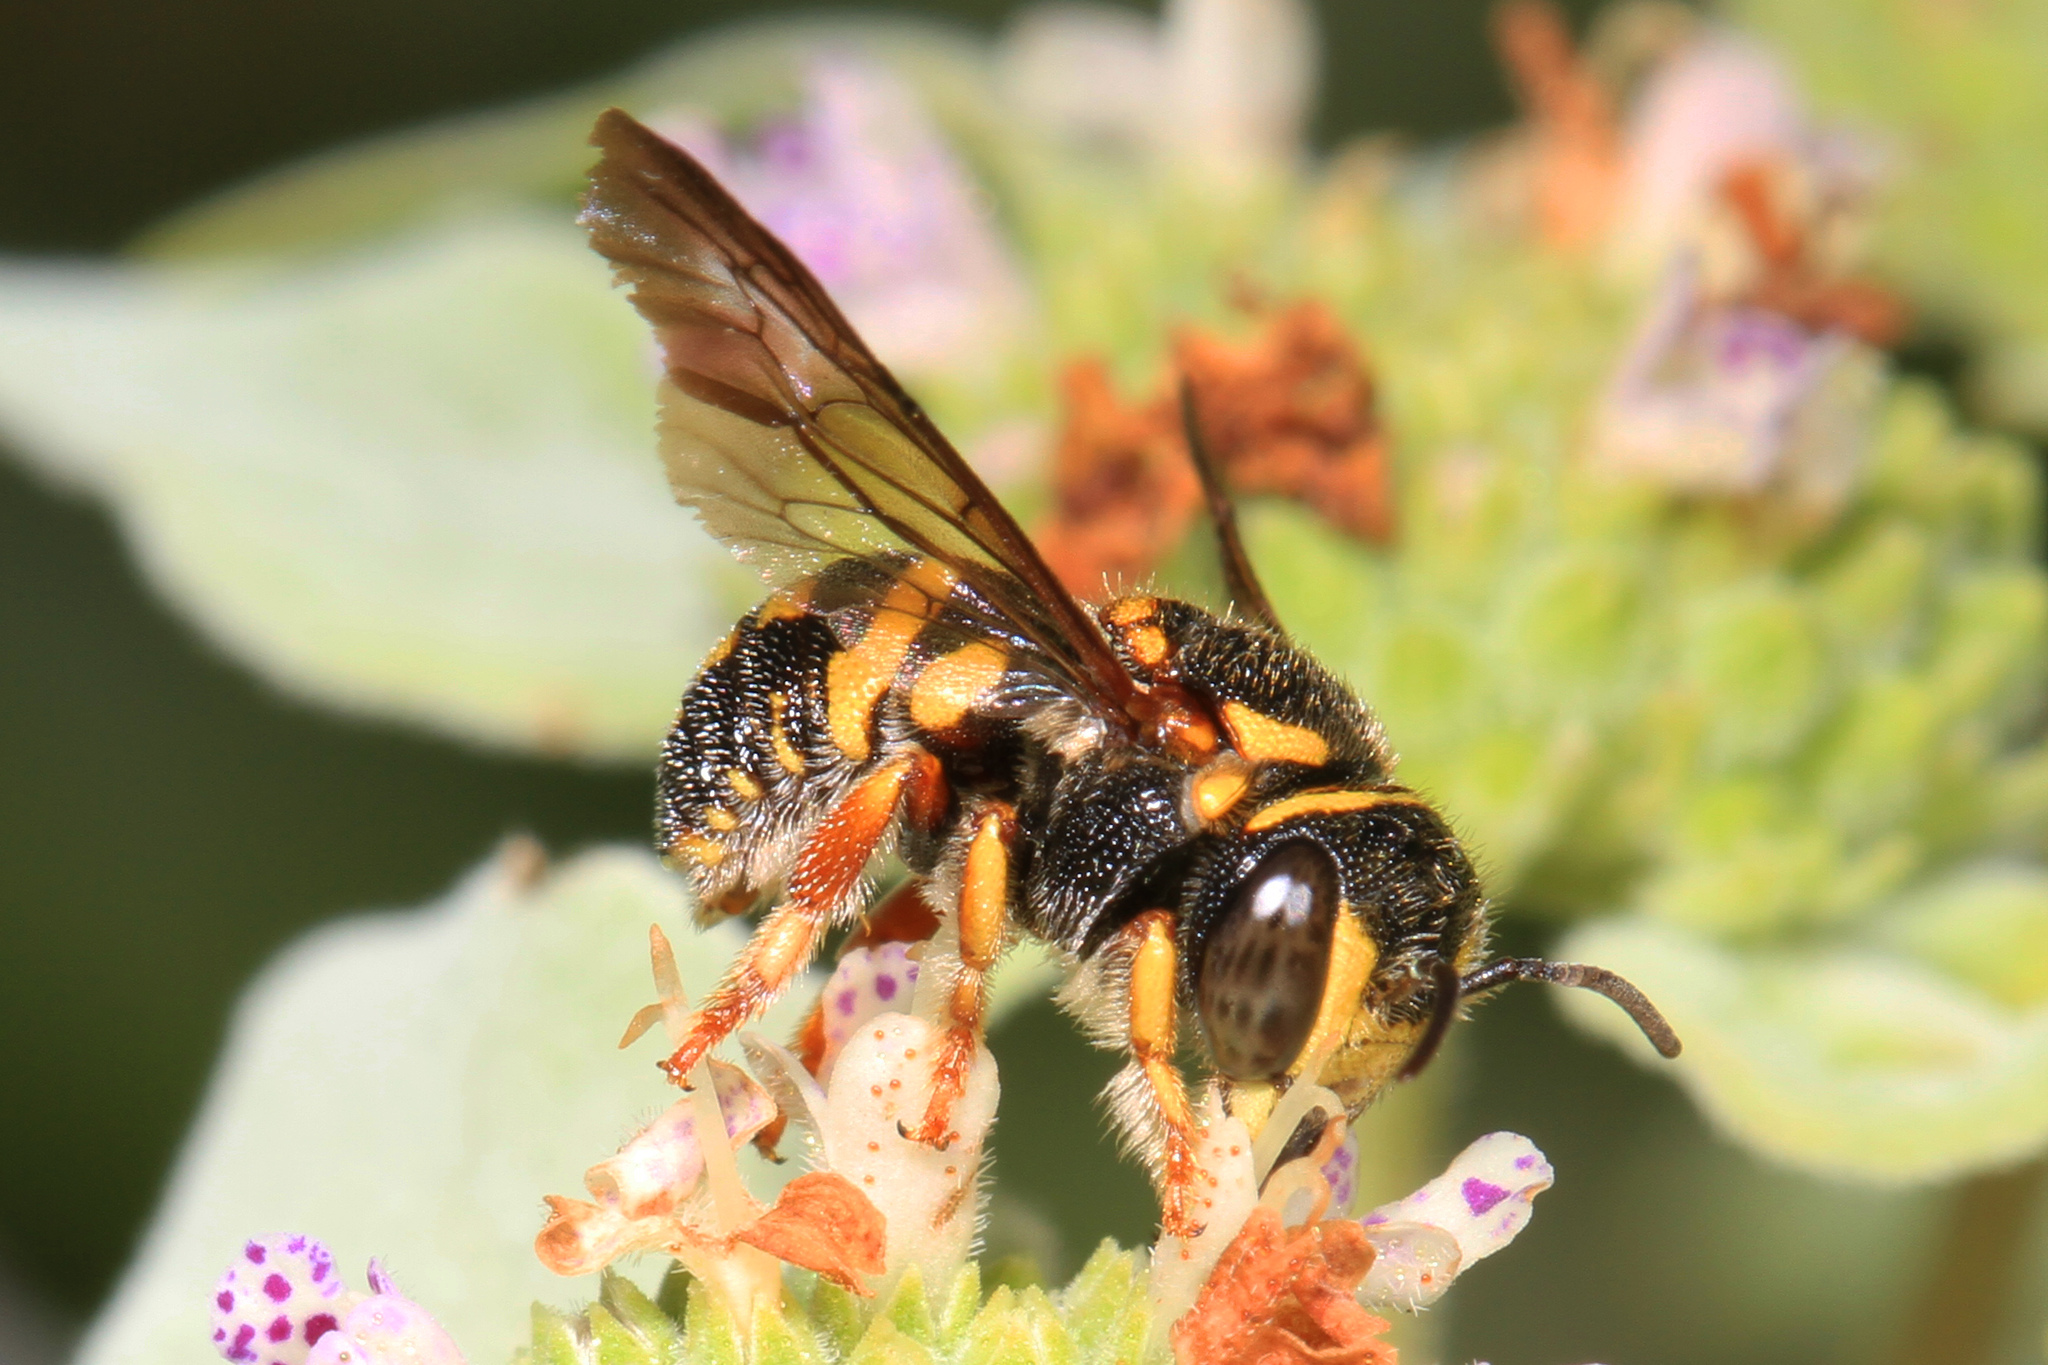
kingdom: Animalia
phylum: Arthropoda
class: Insecta
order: Hymenoptera
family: Megachilidae
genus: Anthidiellum
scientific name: Anthidiellum notatum
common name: Northern rotund-resin bee
